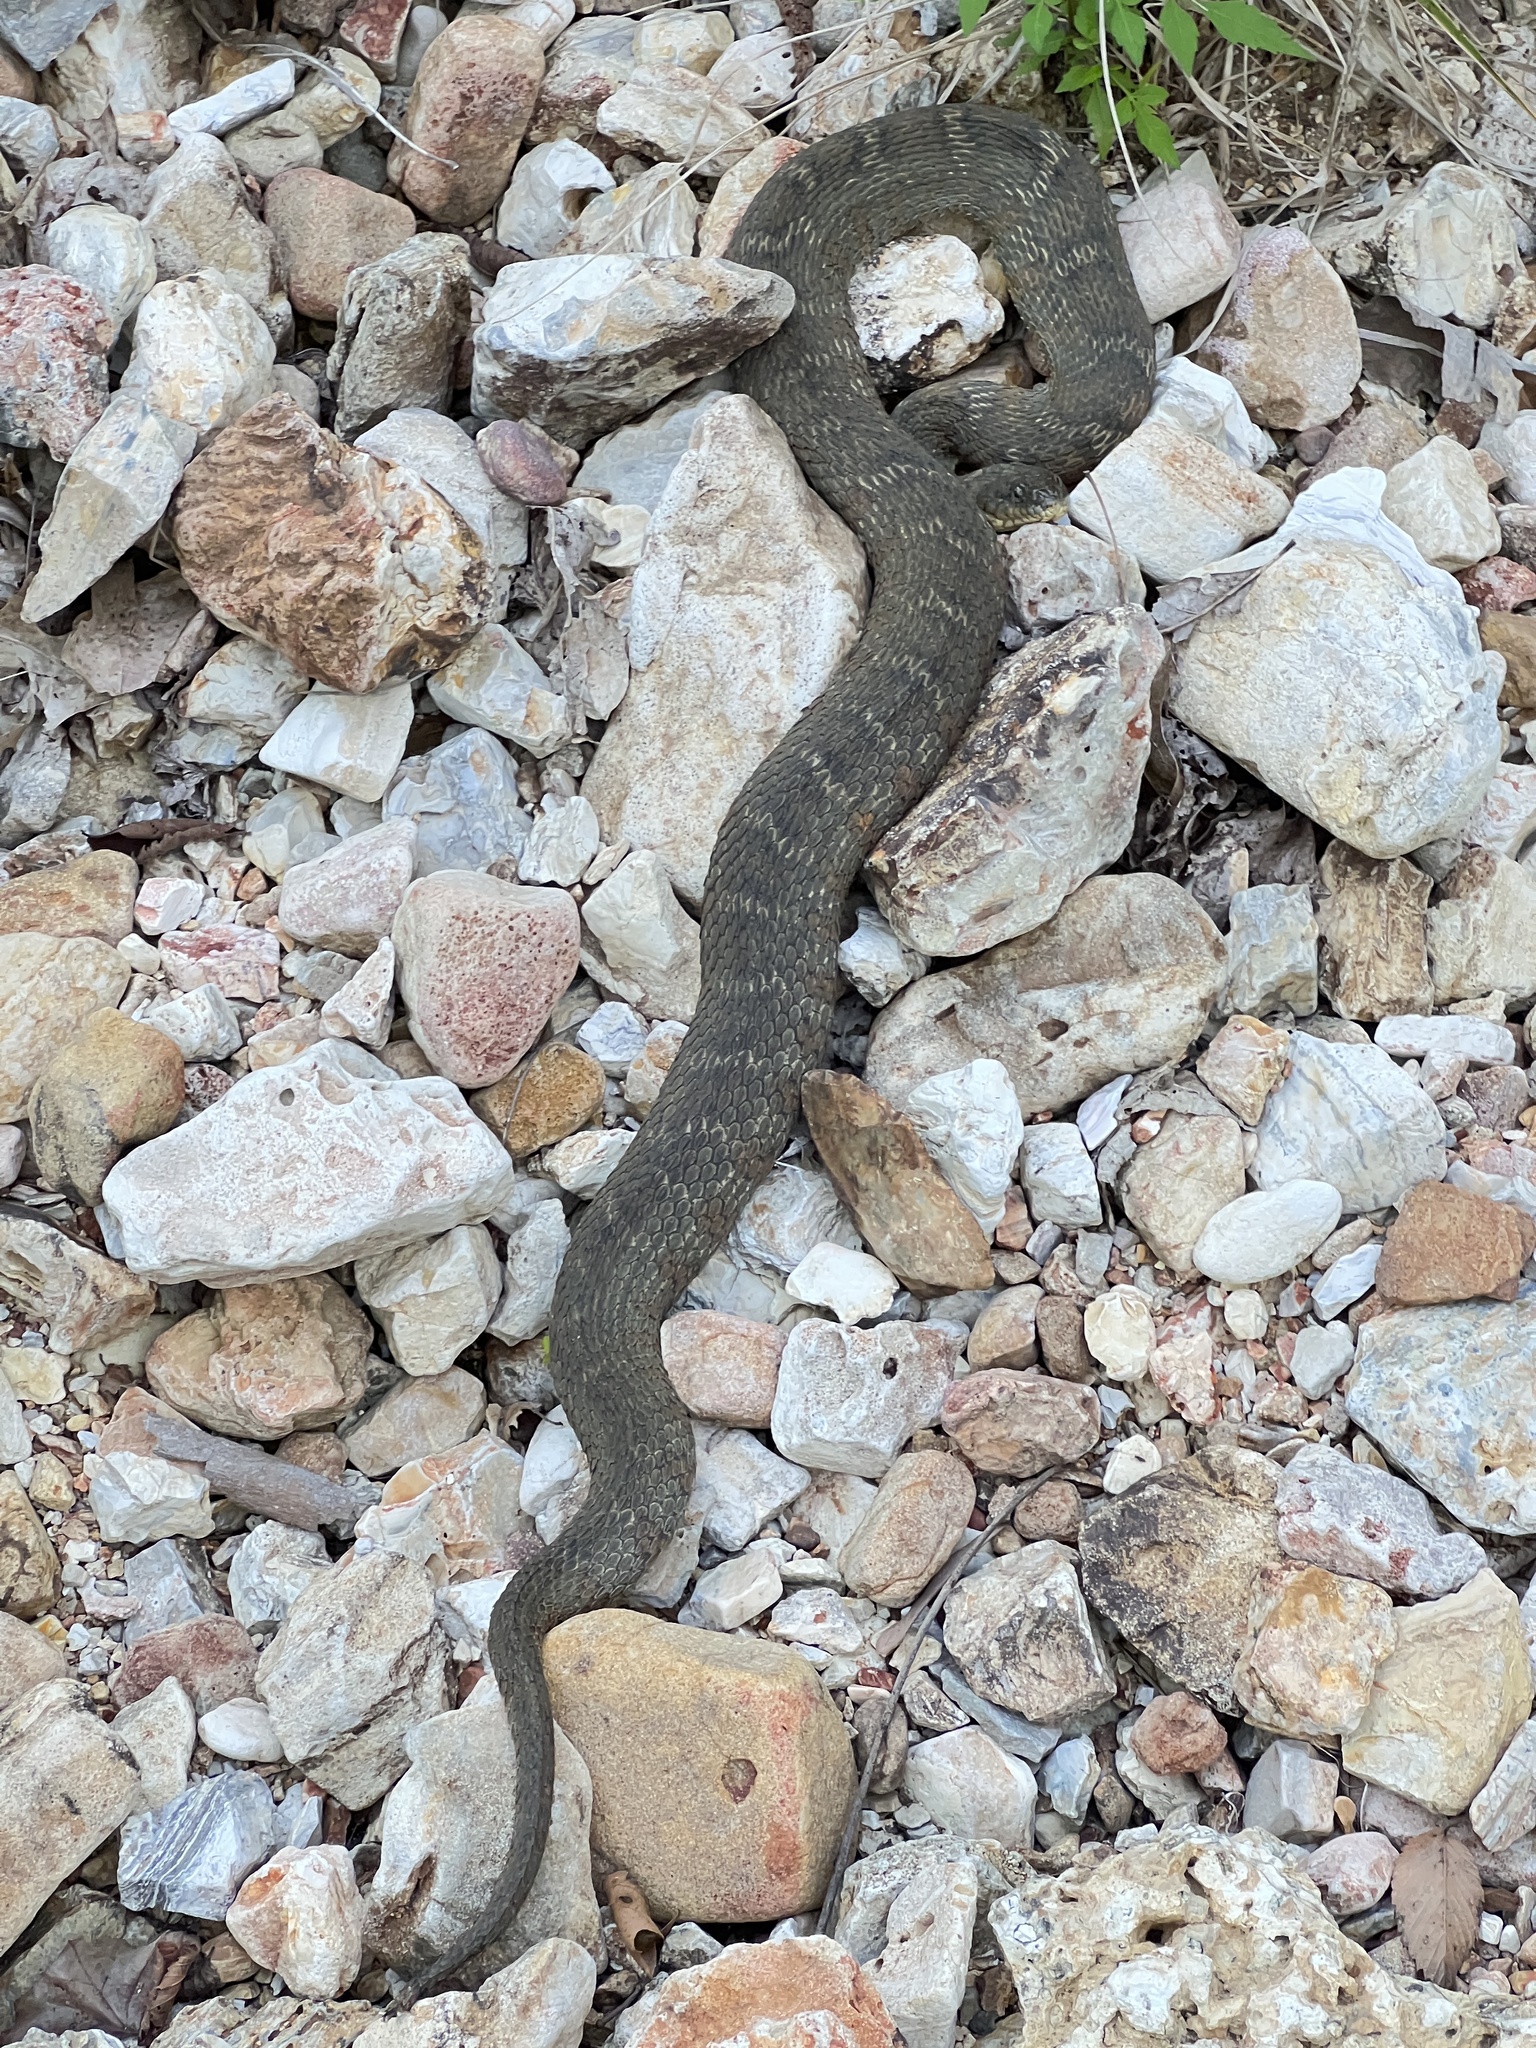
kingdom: Animalia
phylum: Chordata
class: Squamata
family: Colubridae
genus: Nerodia
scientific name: Nerodia sipedon
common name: Northern water snake
